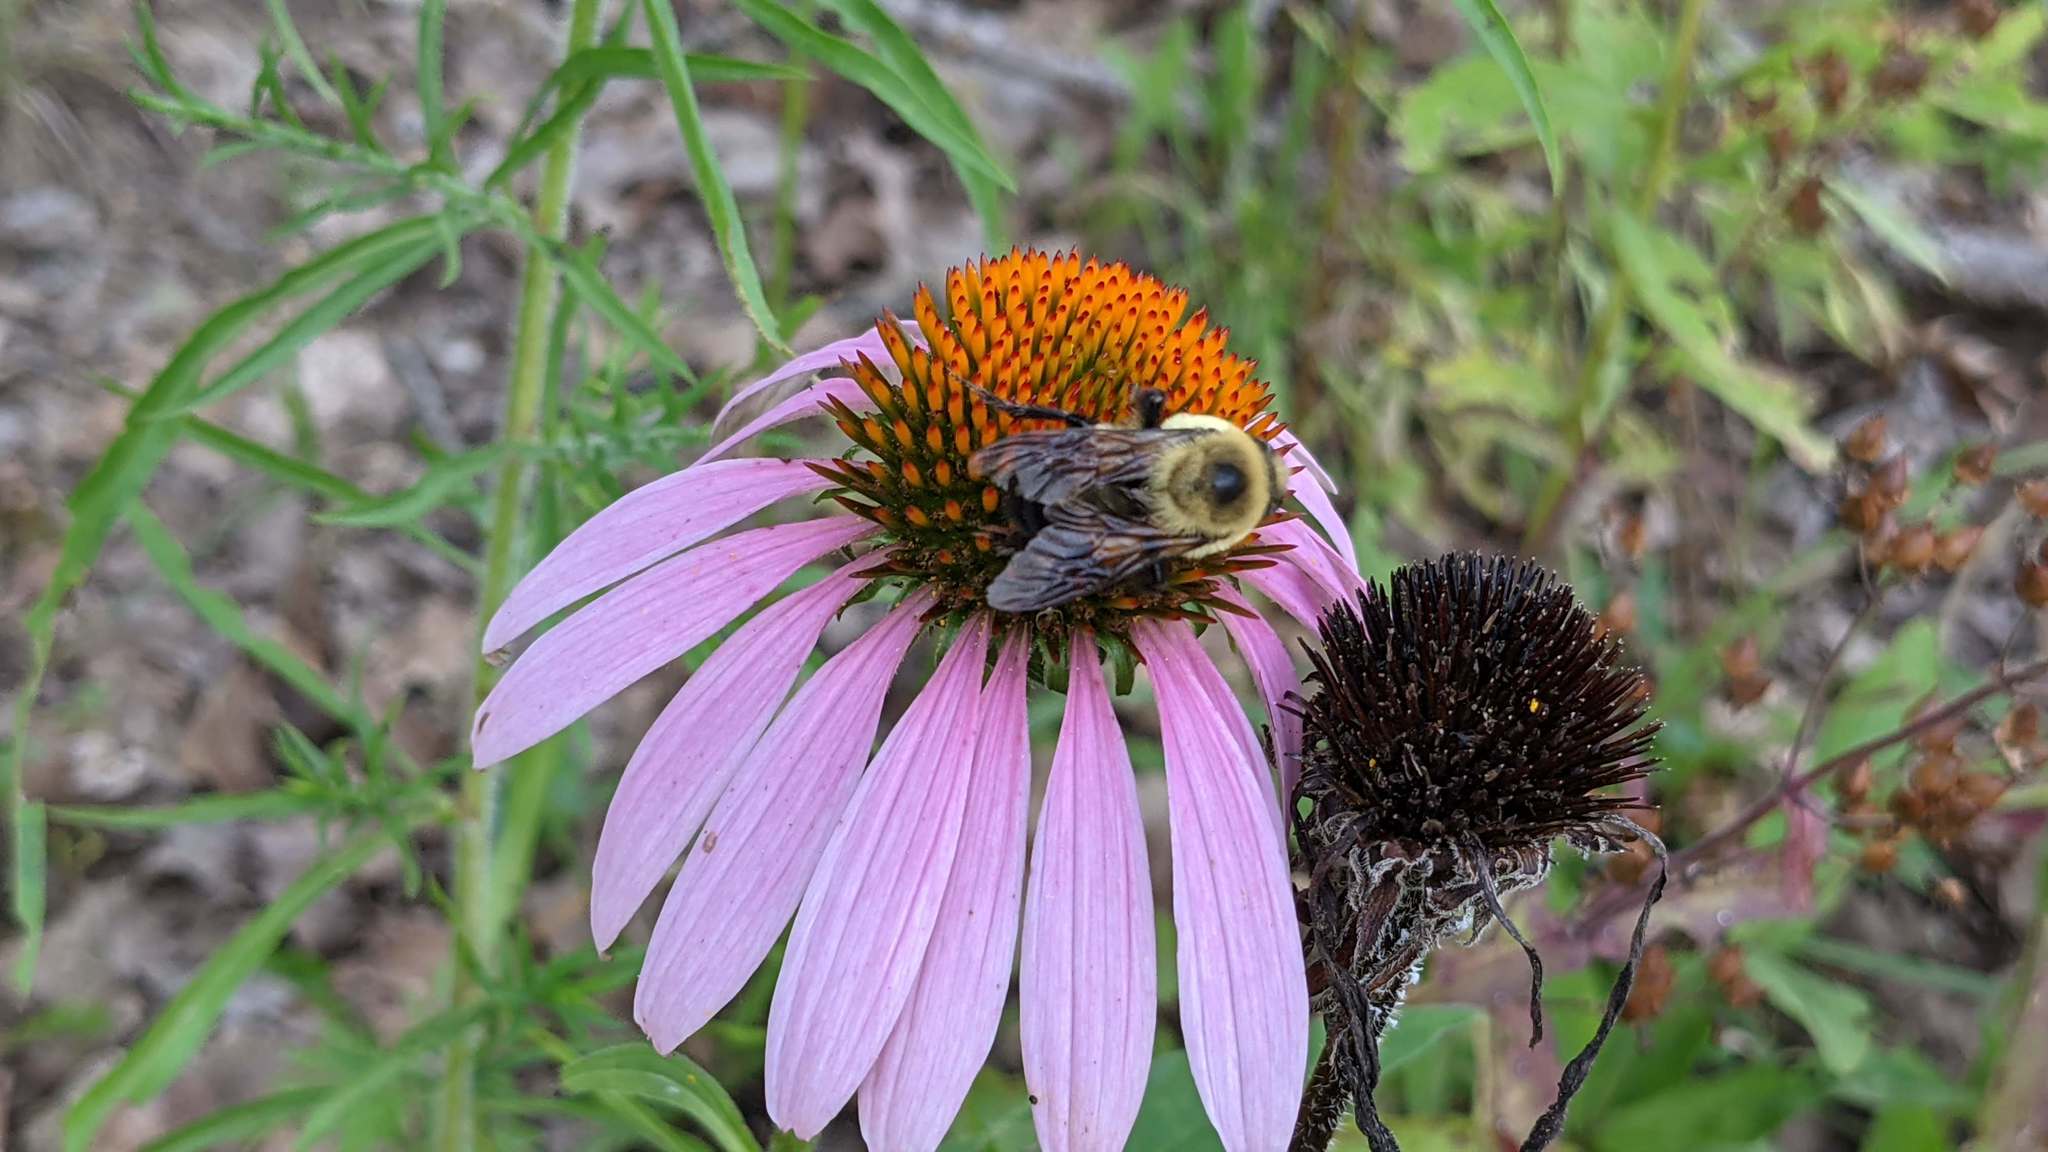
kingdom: Animalia
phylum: Arthropoda
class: Insecta
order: Hymenoptera
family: Apidae
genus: Bombus
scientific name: Bombus griseocollis
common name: Brown-belted bumble bee
